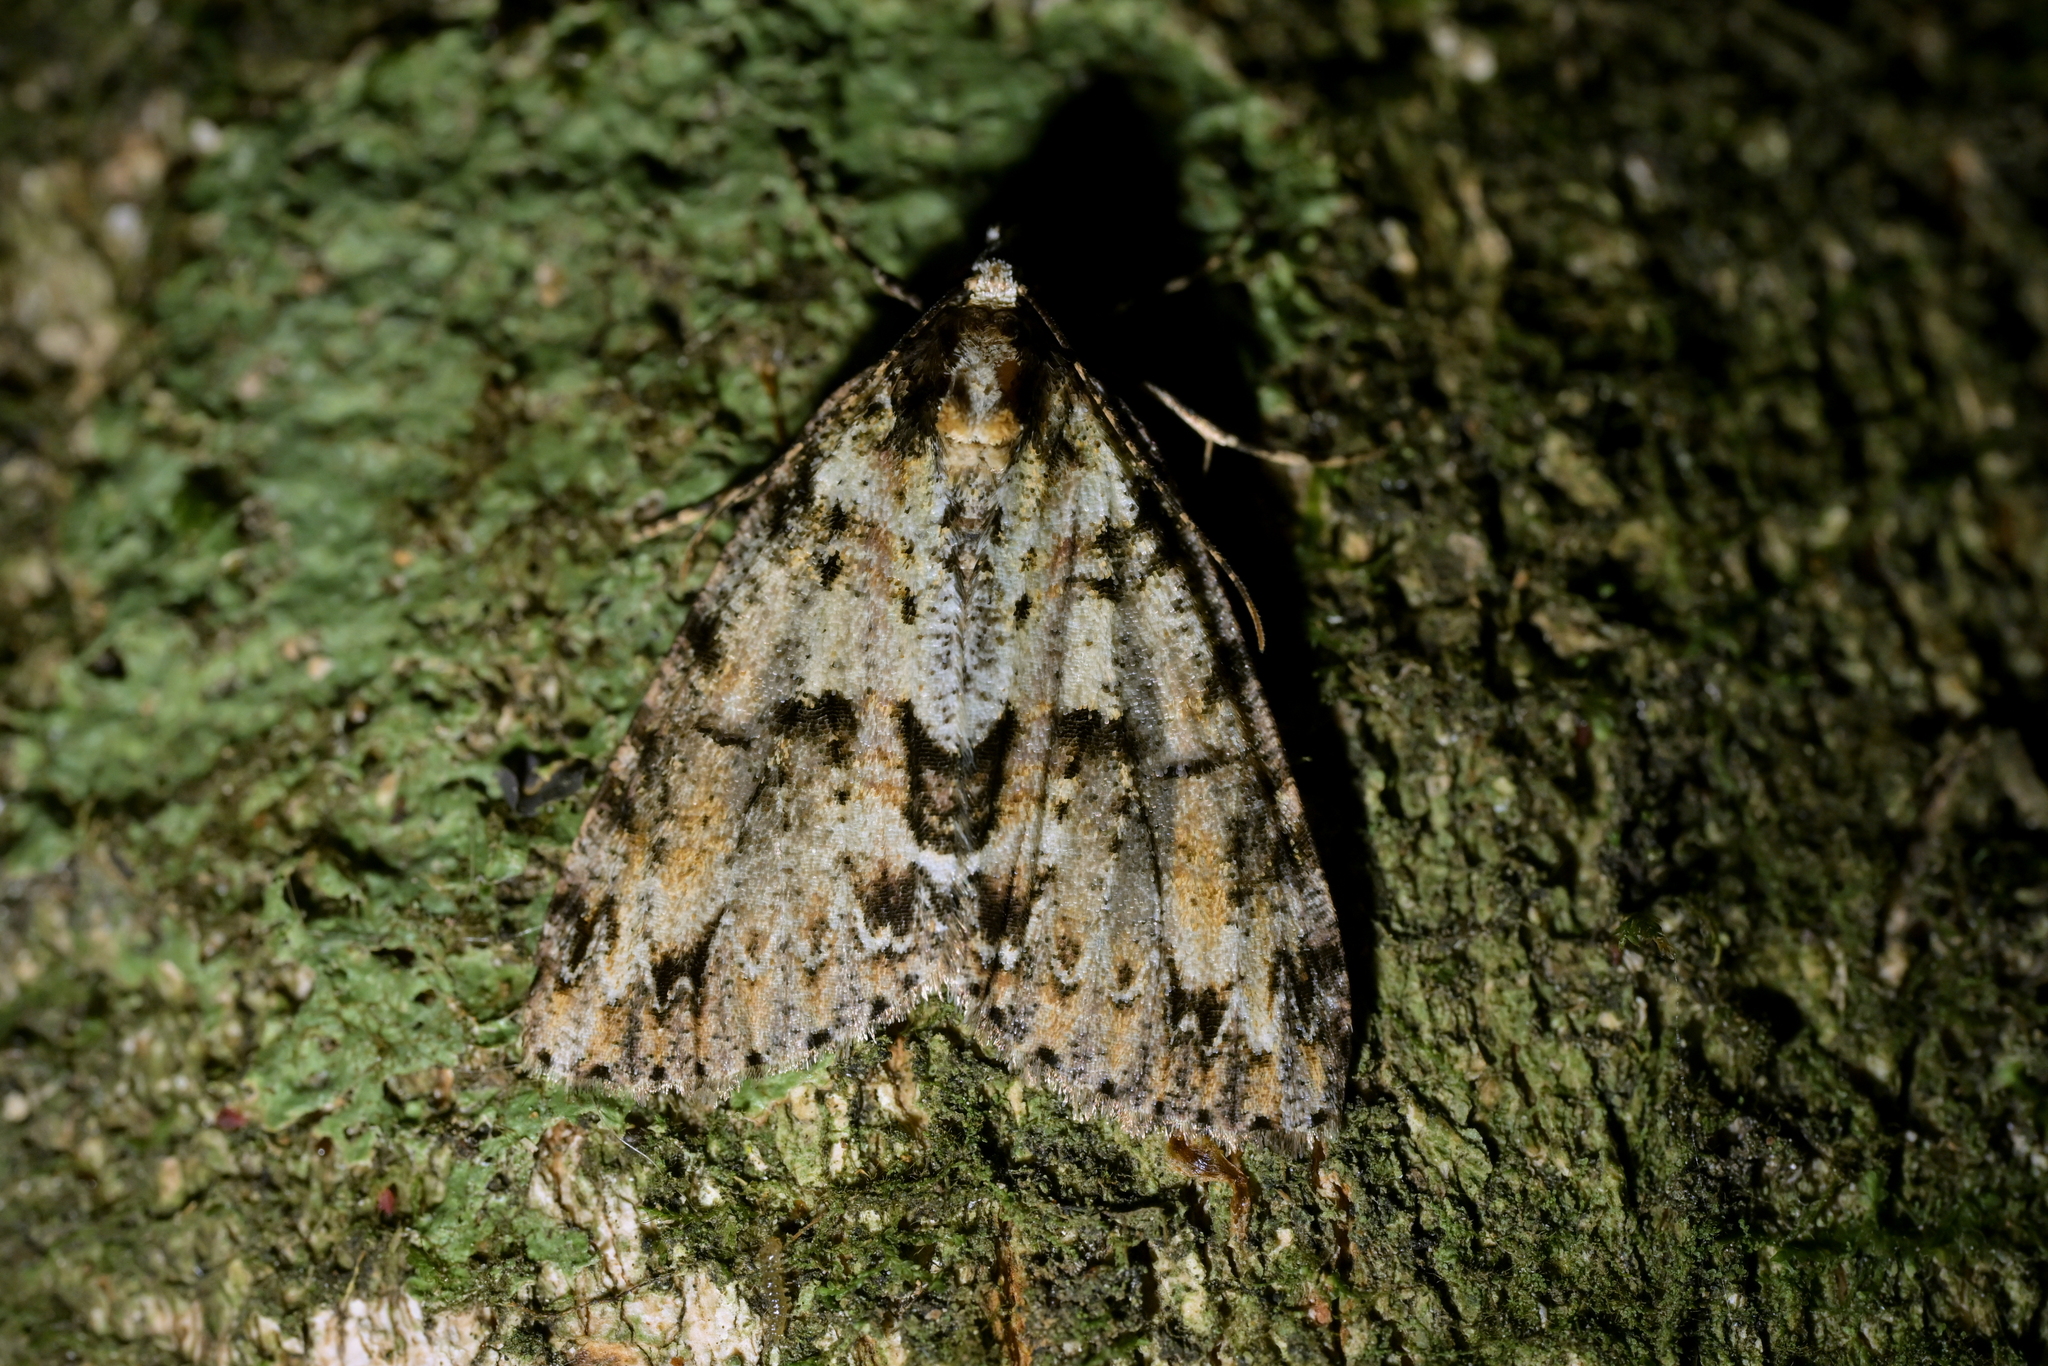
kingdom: Animalia
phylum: Arthropoda
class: Insecta
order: Lepidoptera
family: Geometridae
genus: Pseudocoremia
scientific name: Pseudocoremia suavis
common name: Common forest looper
